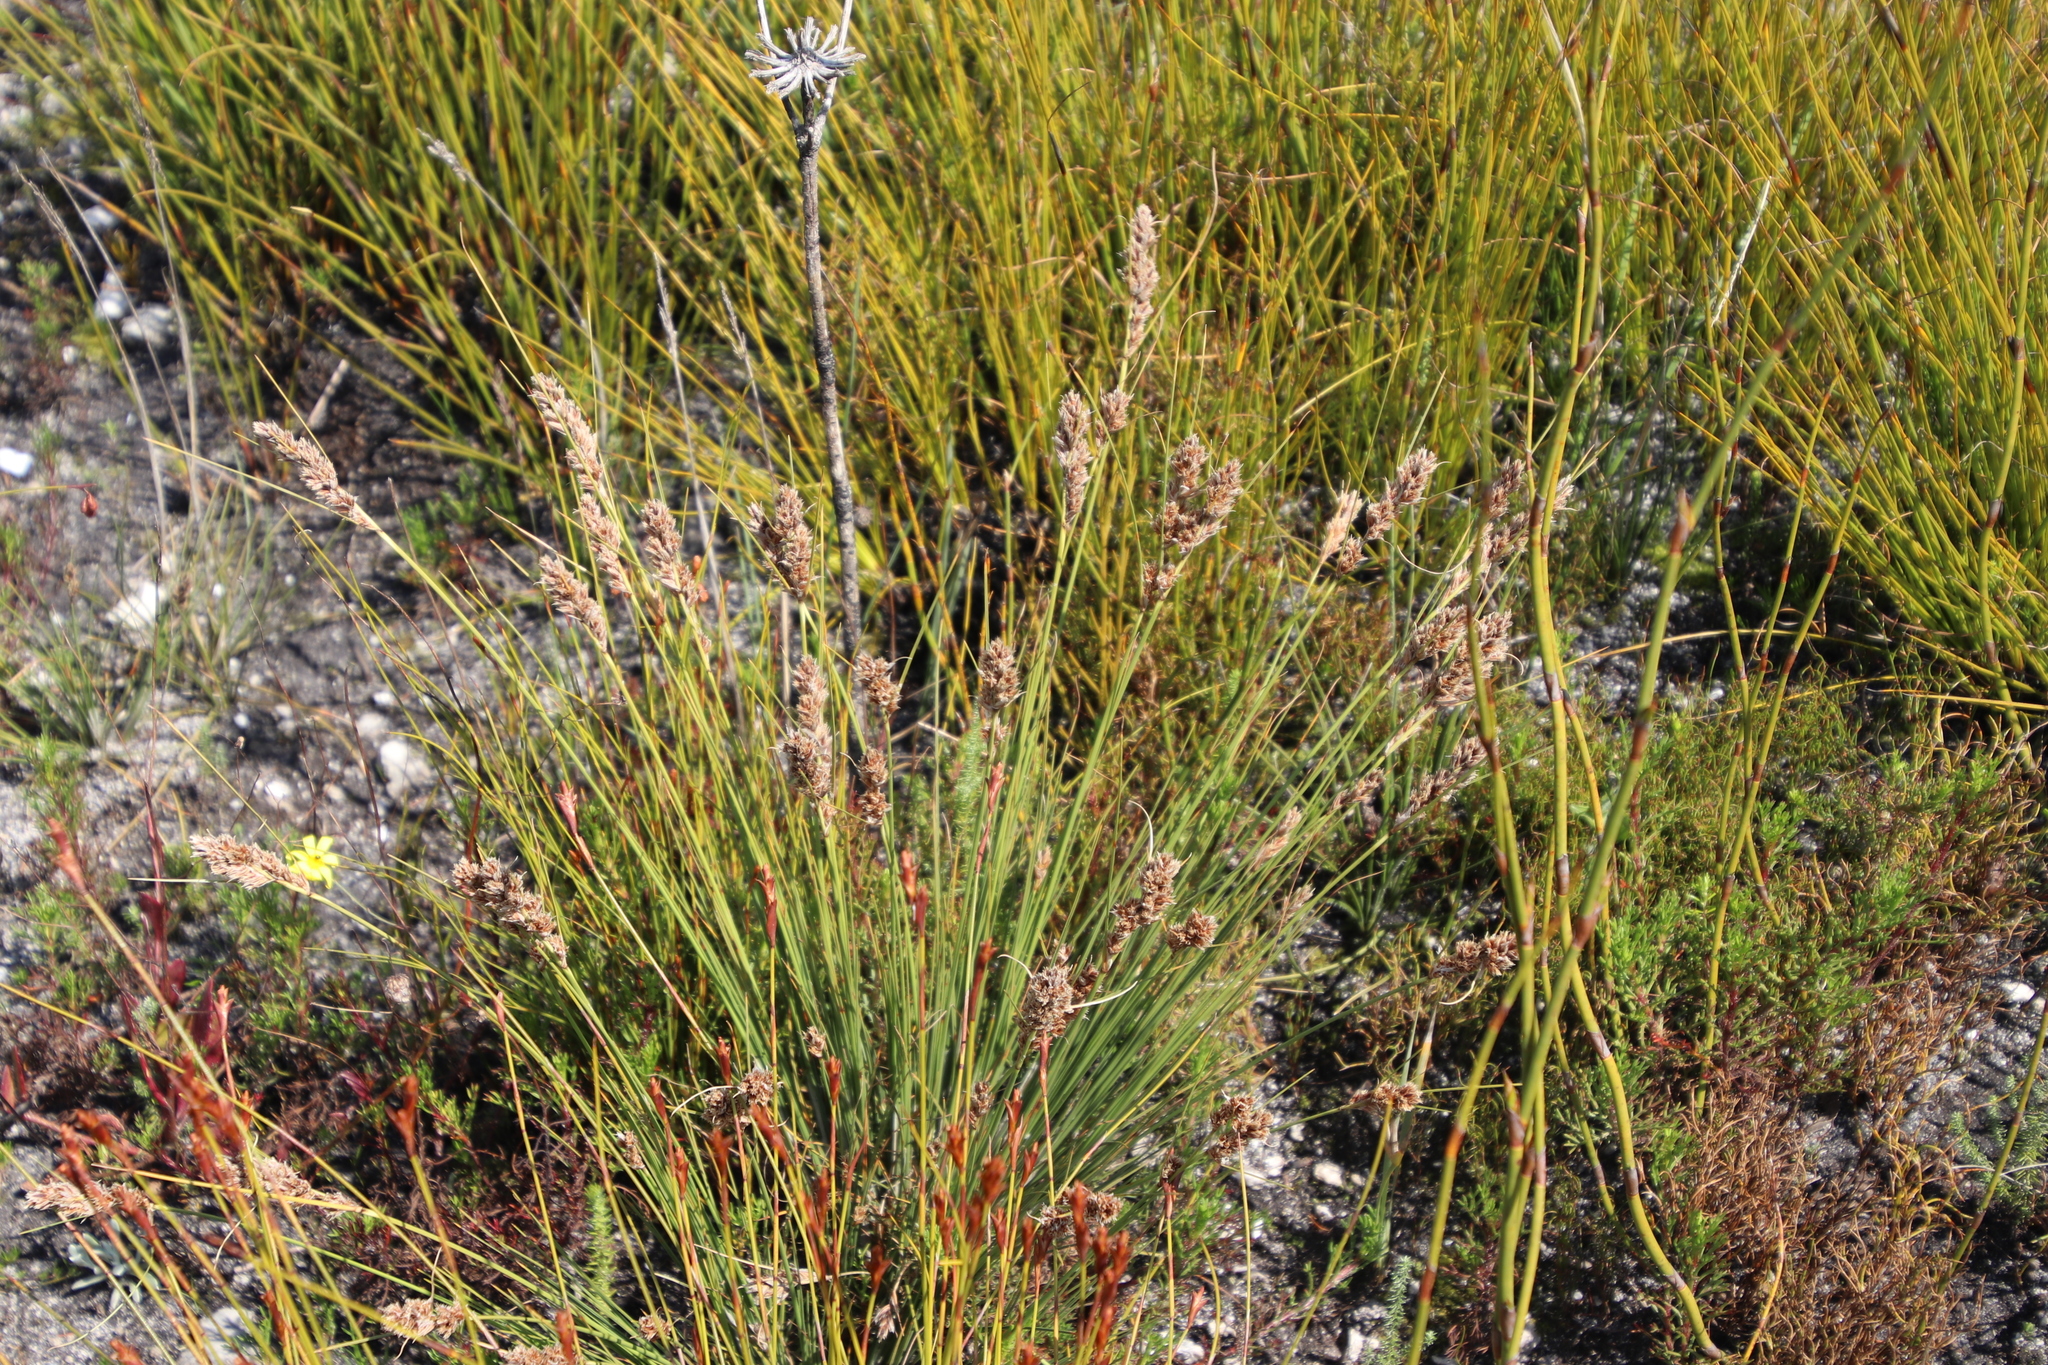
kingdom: Plantae
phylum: Tracheophyta
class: Liliopsida
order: Poales
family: Cyperaceae
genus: Ficinia
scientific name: Ficinia monticola
